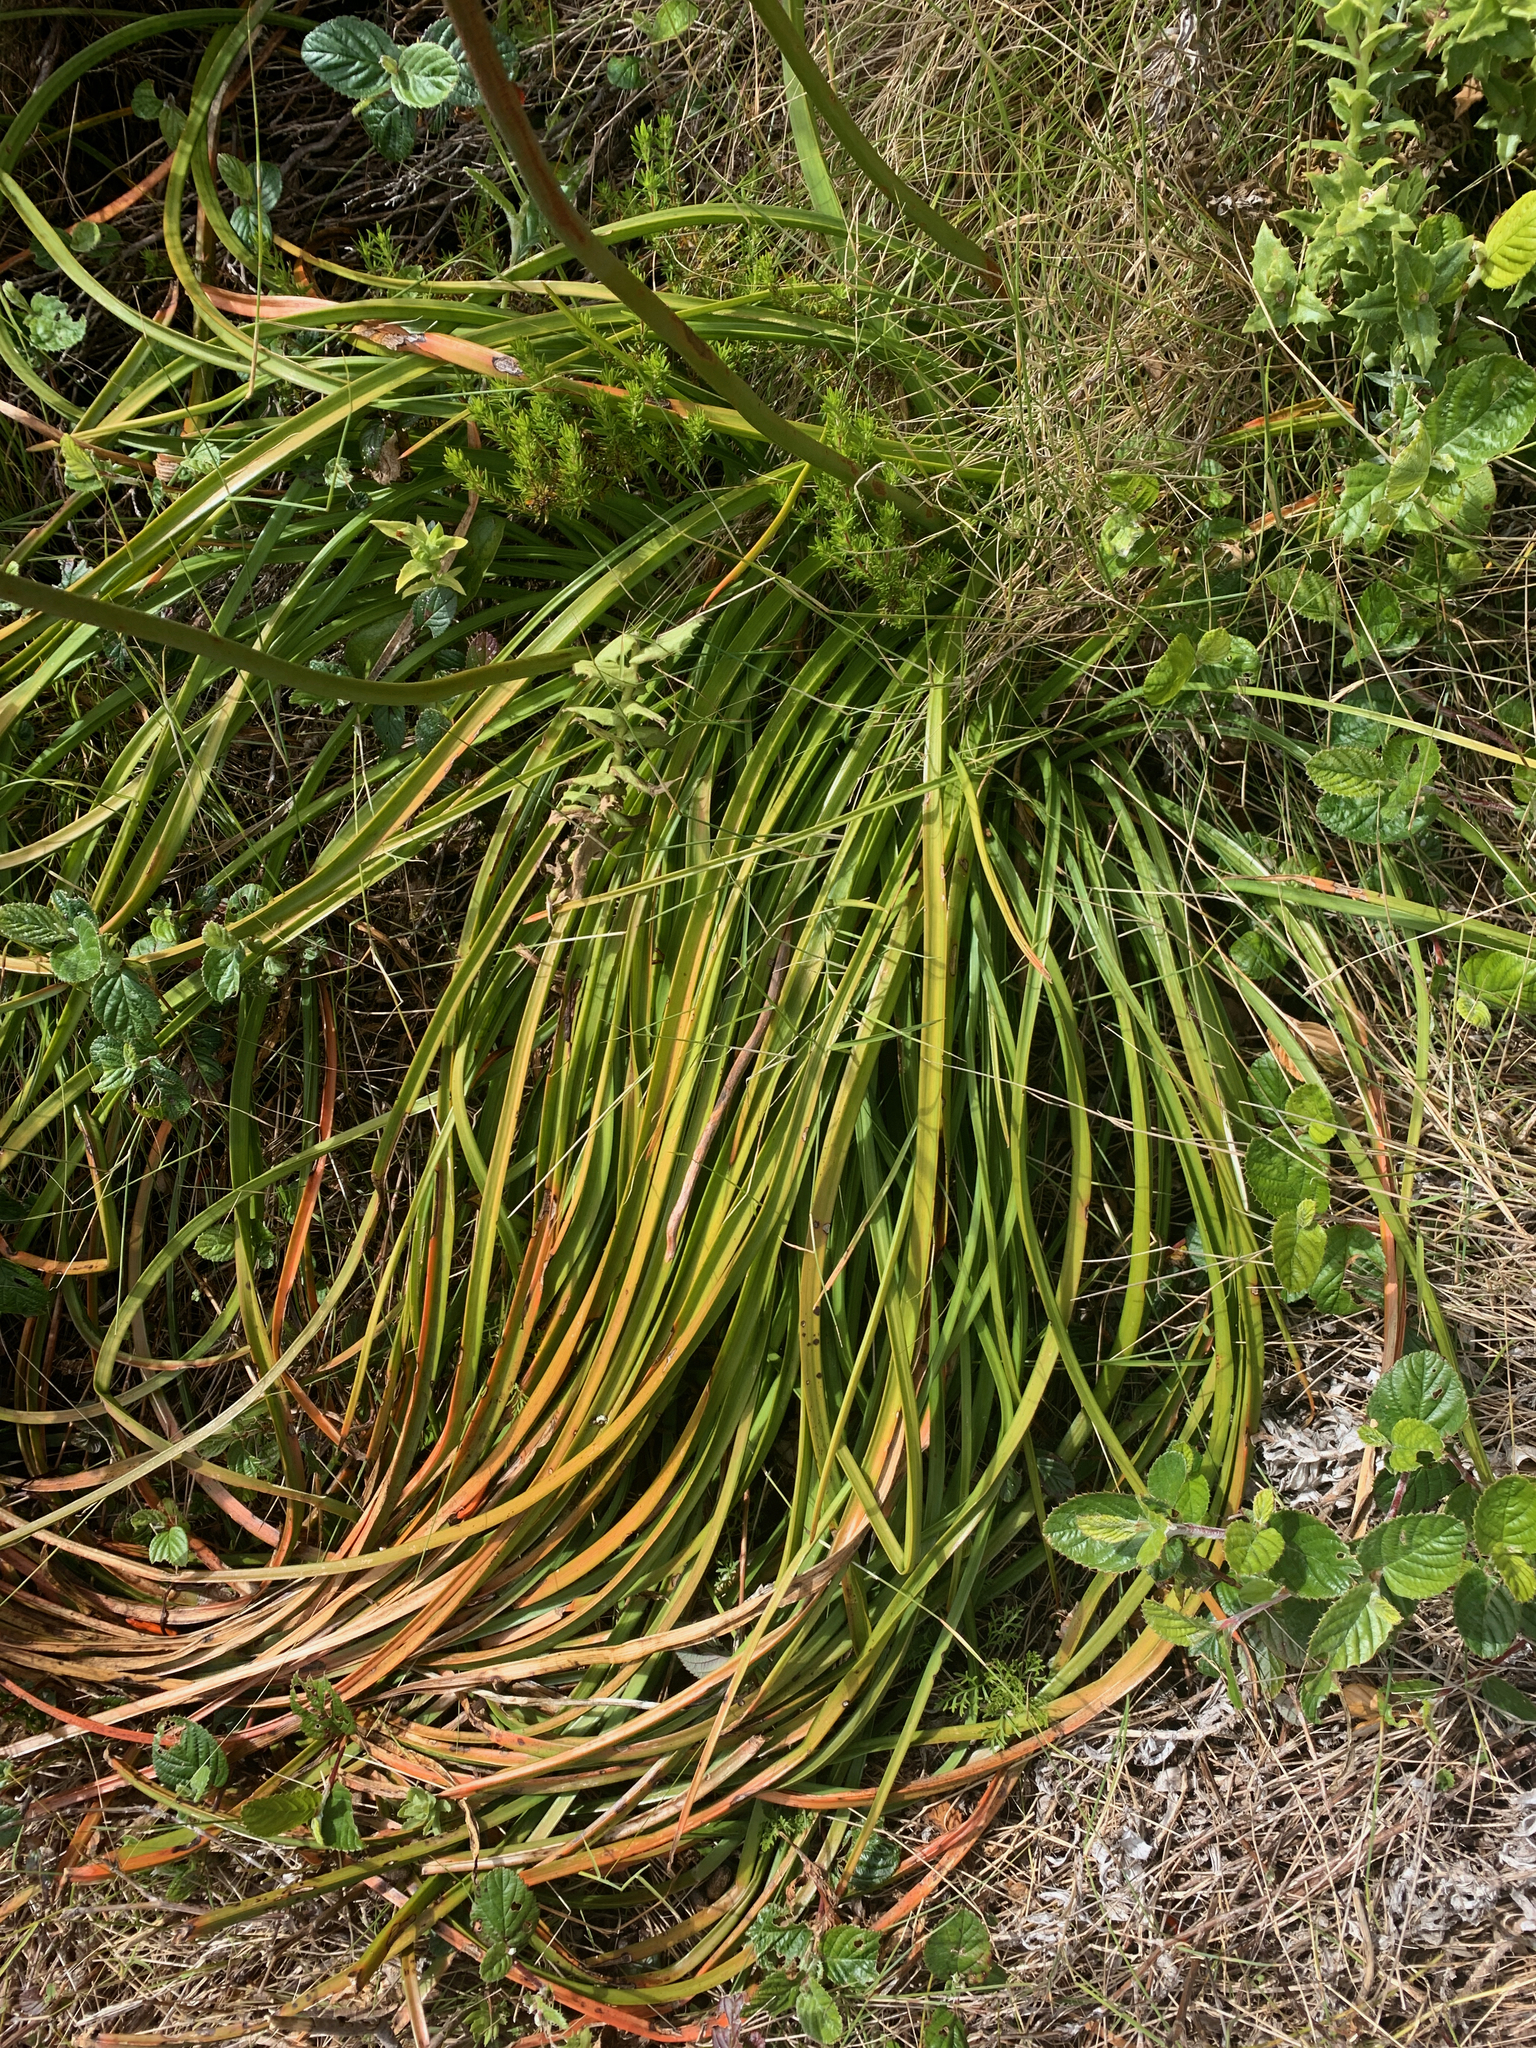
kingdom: Plantae
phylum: Tracheophyta
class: Liliopsida
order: Asparagales
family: Asphodelaceae
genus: Kniphofia
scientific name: Kniphofia tabularis
